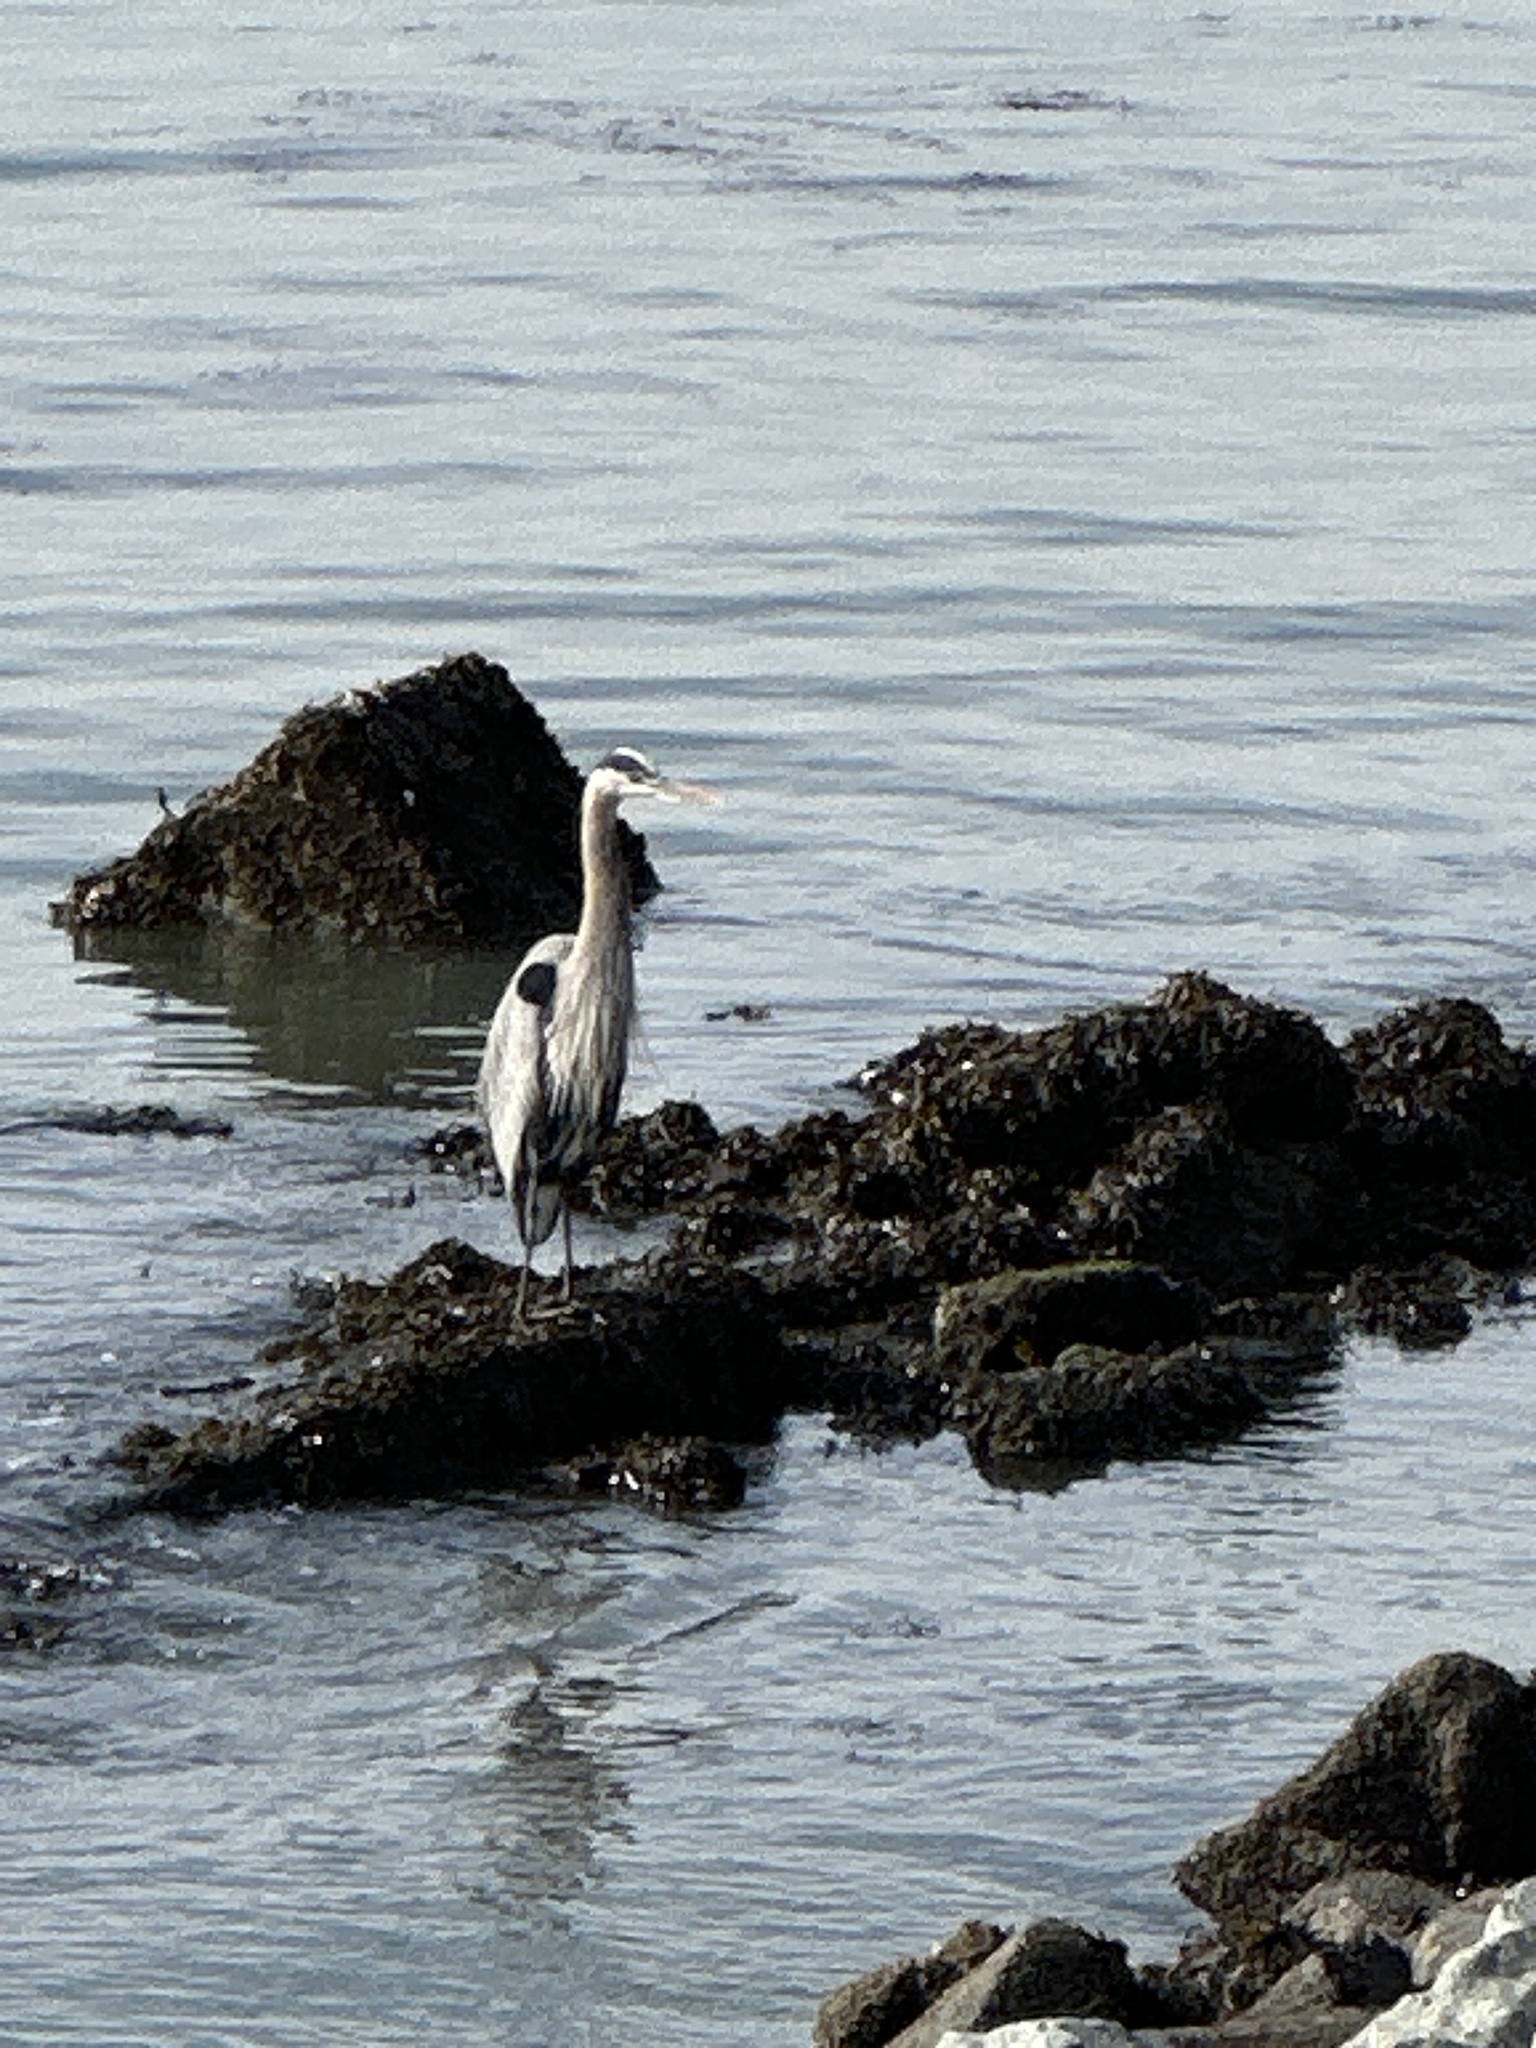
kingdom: Animalia
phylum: Chordata
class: Aves
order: Pelecaniformes
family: Ardeidae
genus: Ardea
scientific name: Ardea herodias
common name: Great blue heron
